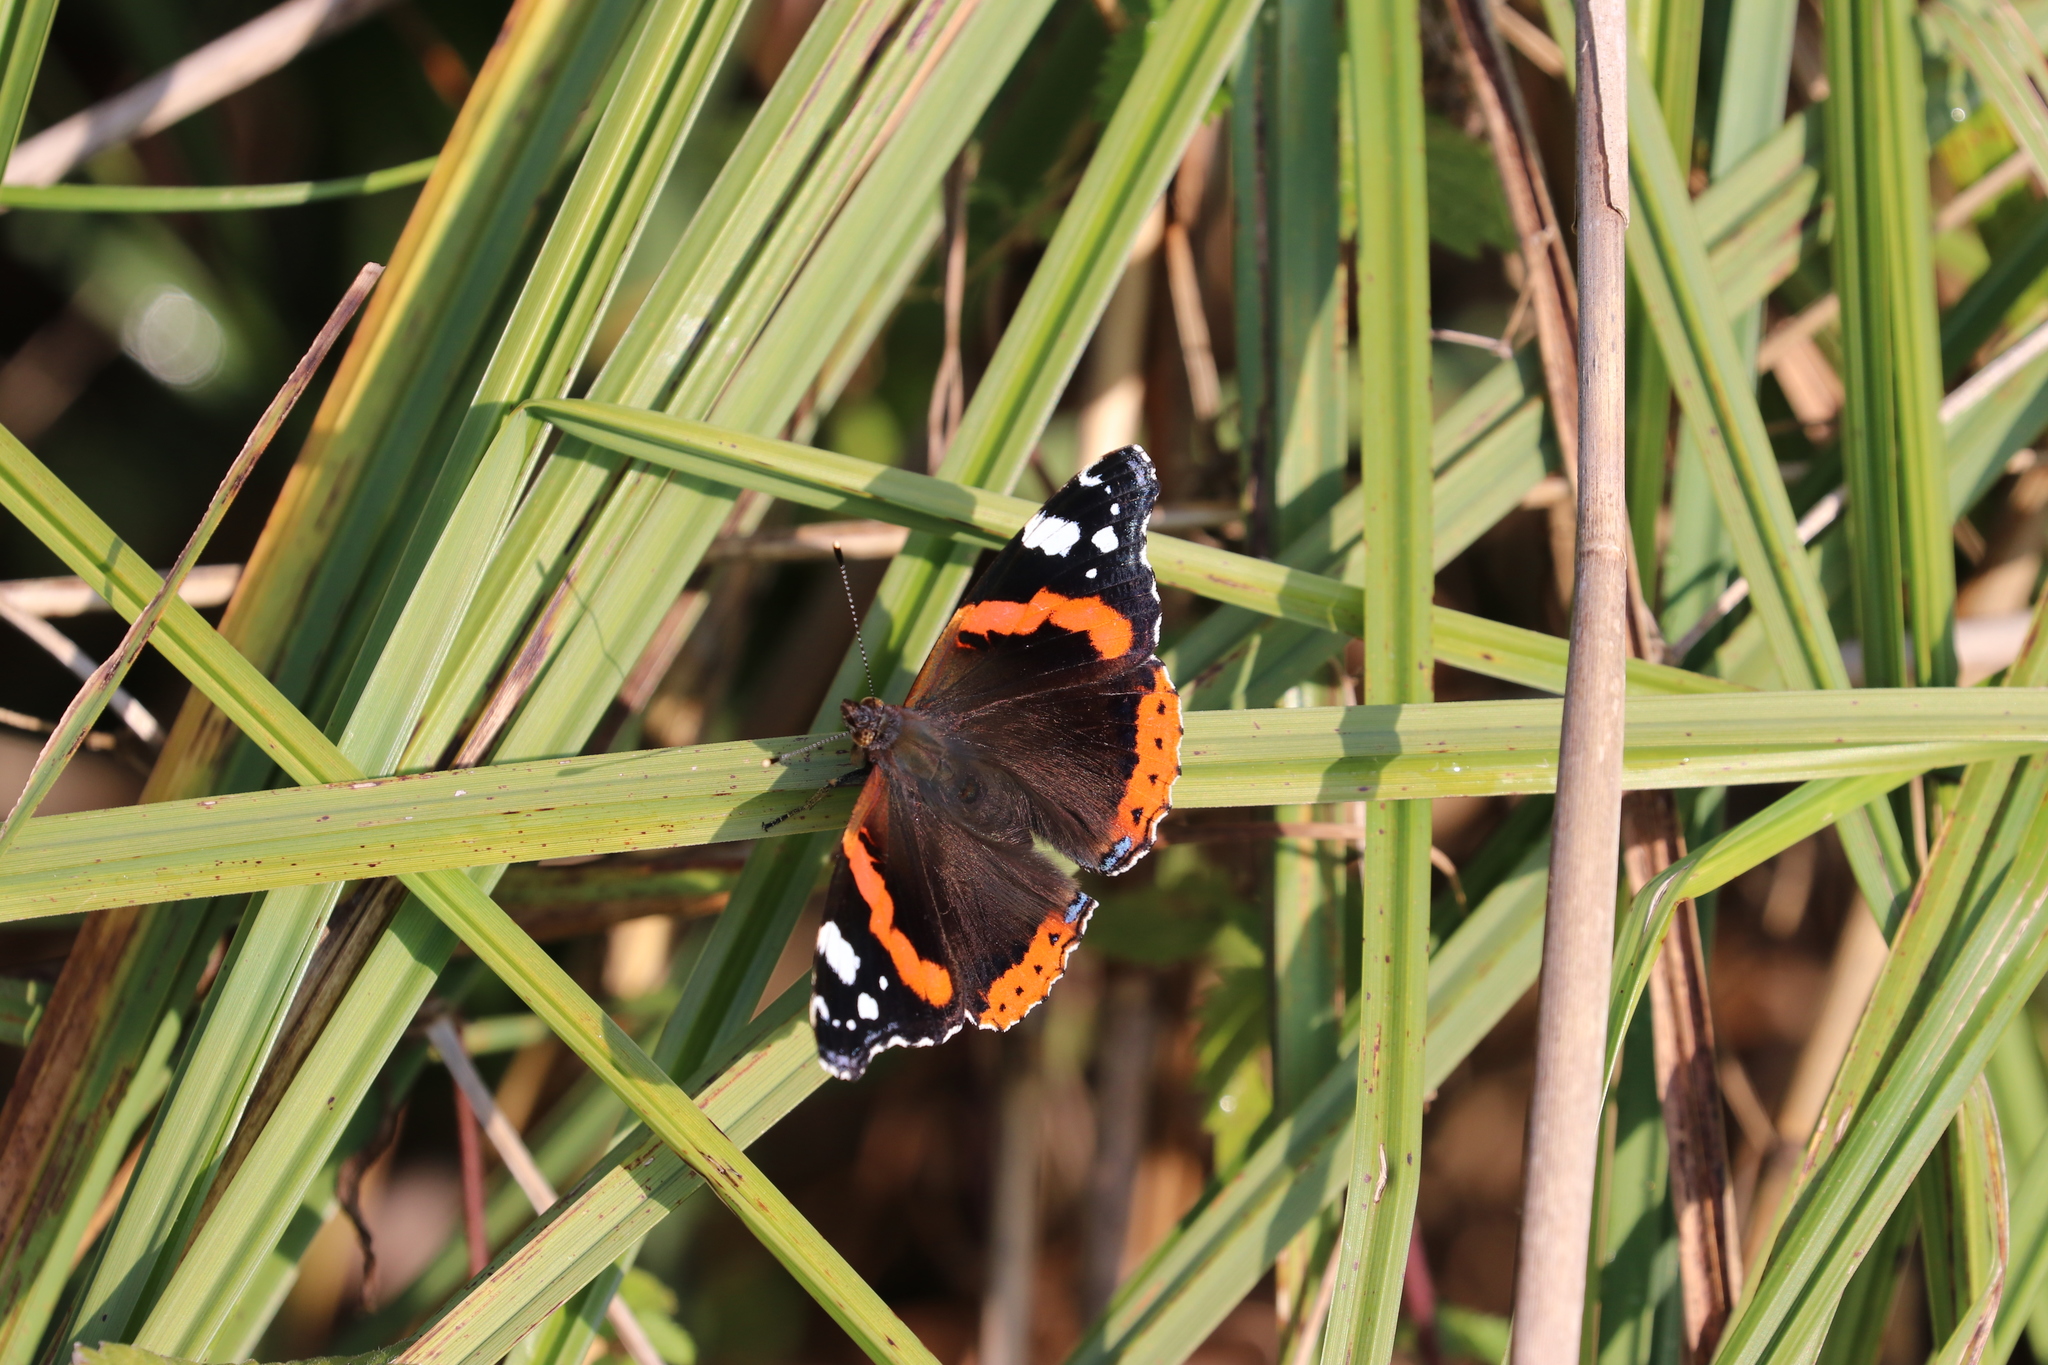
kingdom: Animalia
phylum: Arthropoda
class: Insecta
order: Lepidoptera
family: Nymphalidae
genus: Vanessa
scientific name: Vanessa atalanta
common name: Red admiral
